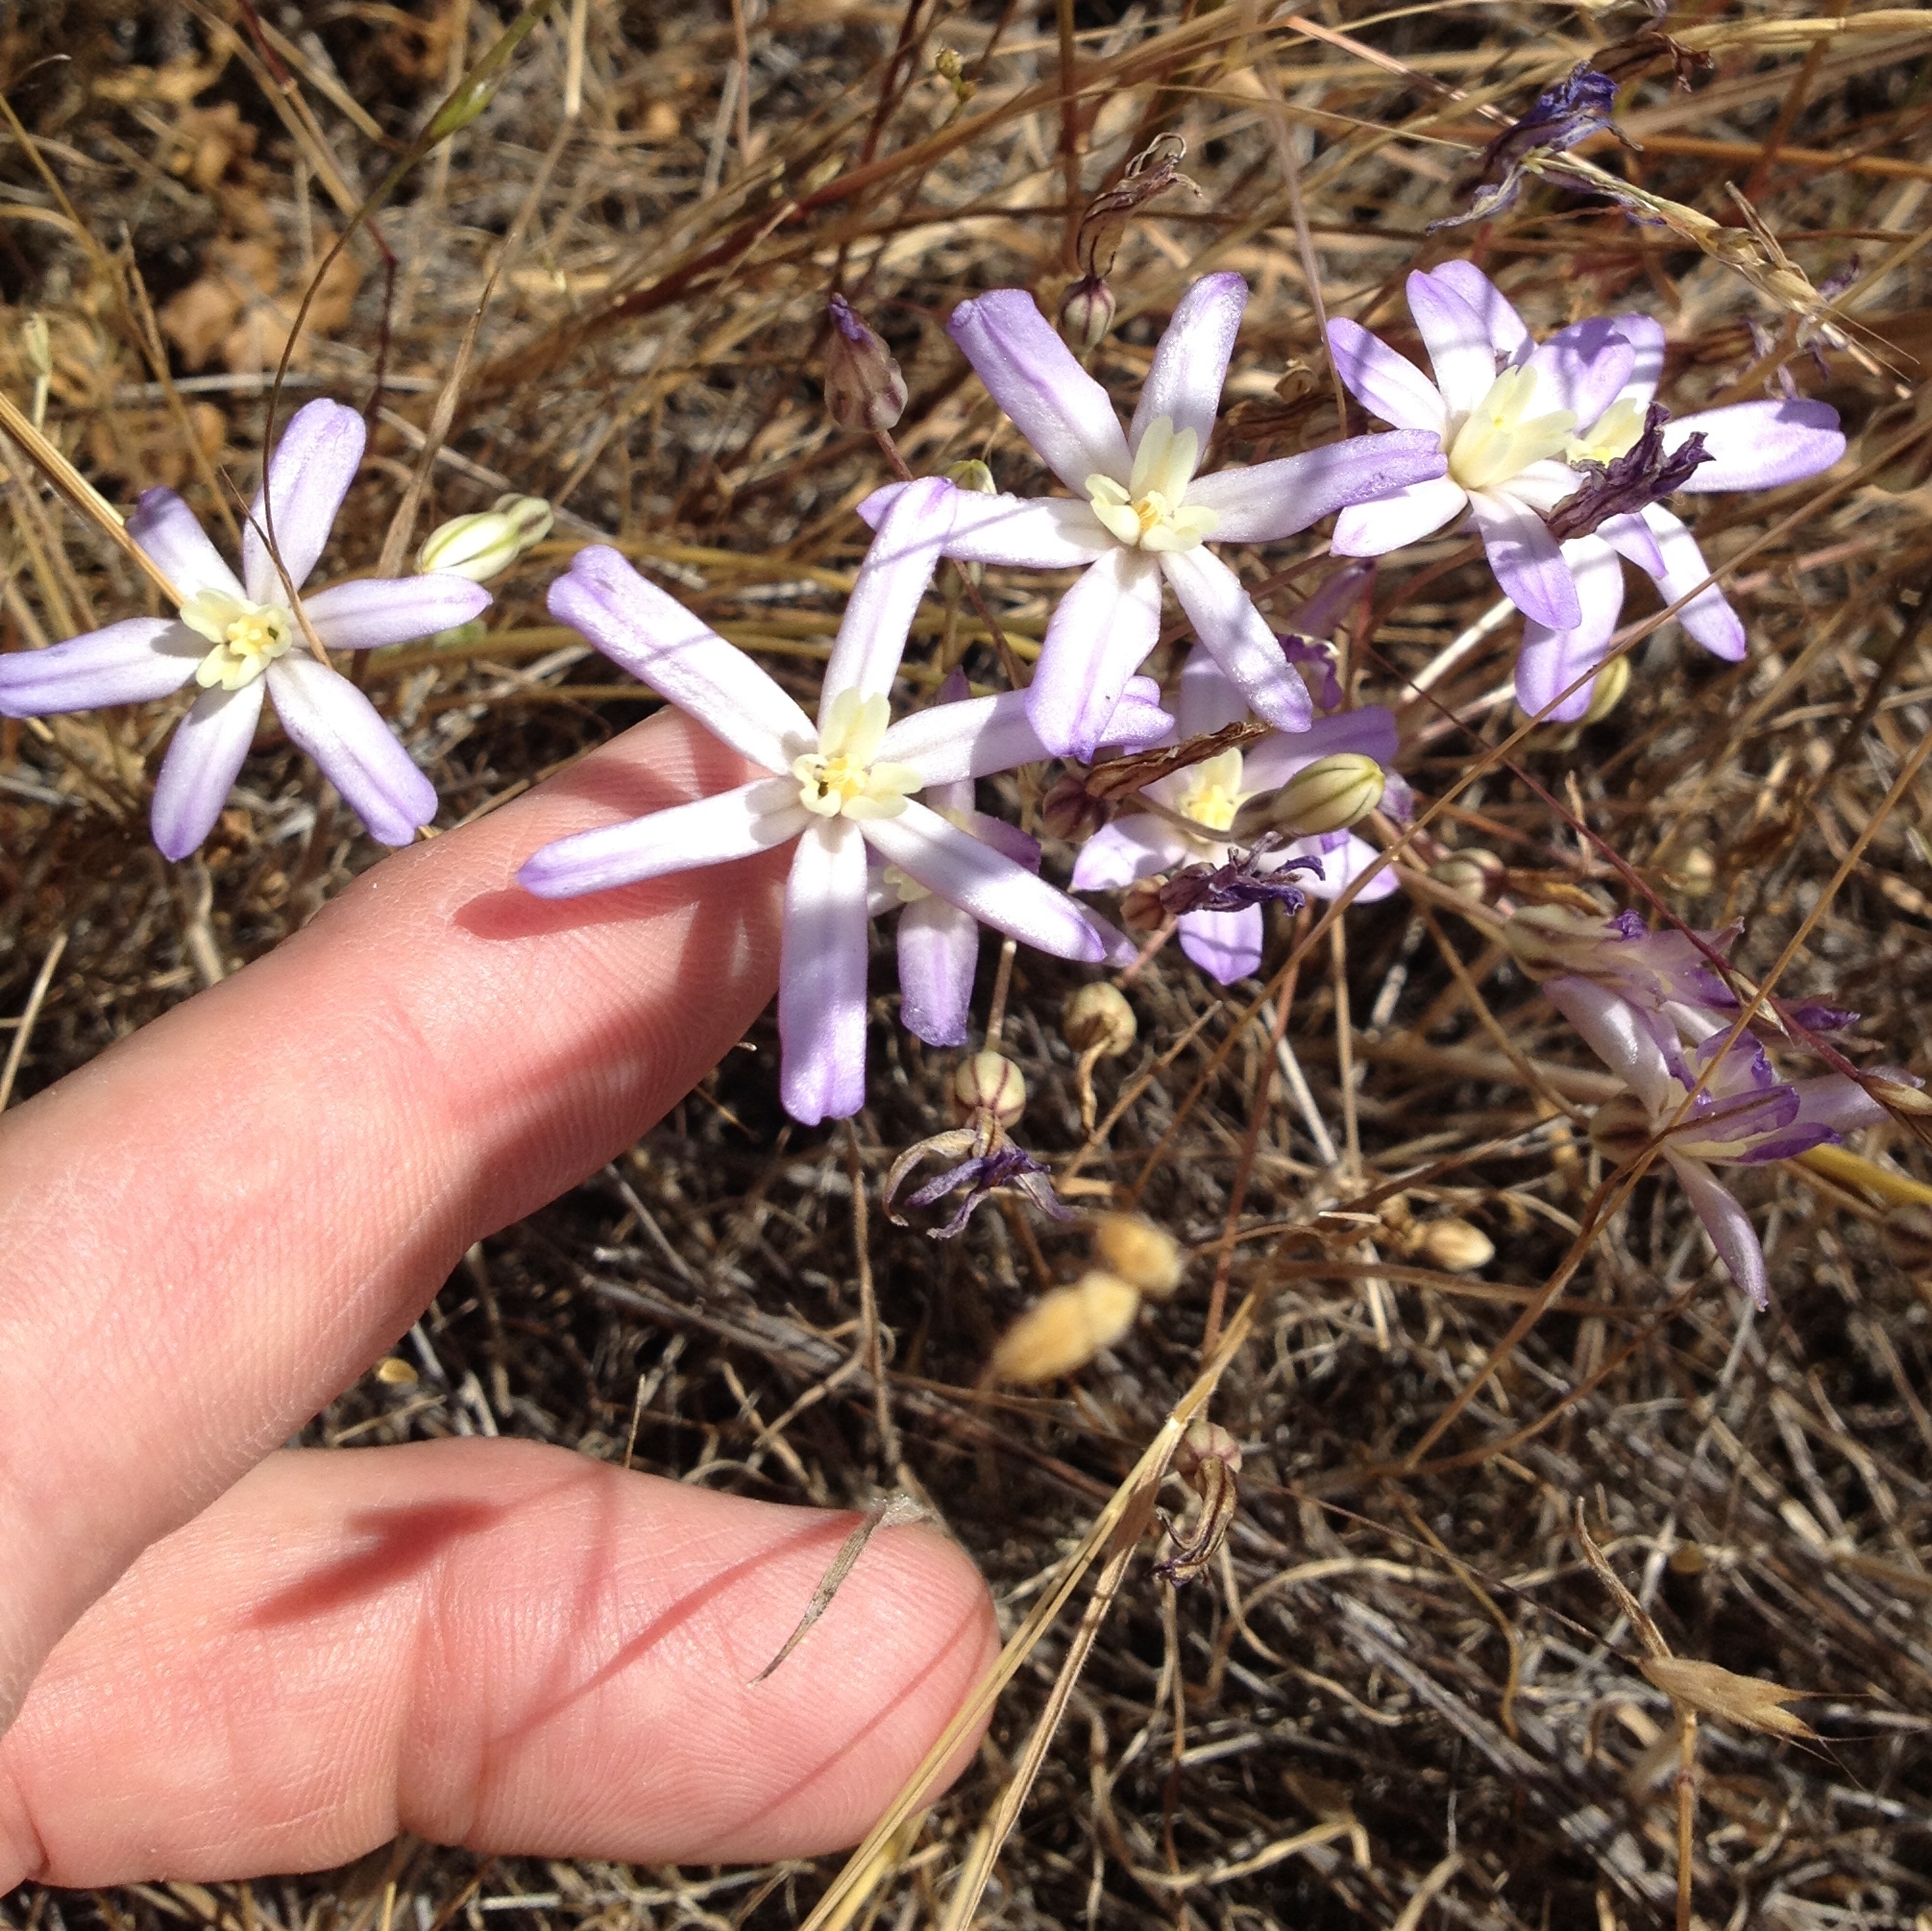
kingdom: Plantae
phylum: Tracheophyta
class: Liliopsida
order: Asparagales
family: Asparagaceae
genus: Brodiaea
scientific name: Brodiaea nana
